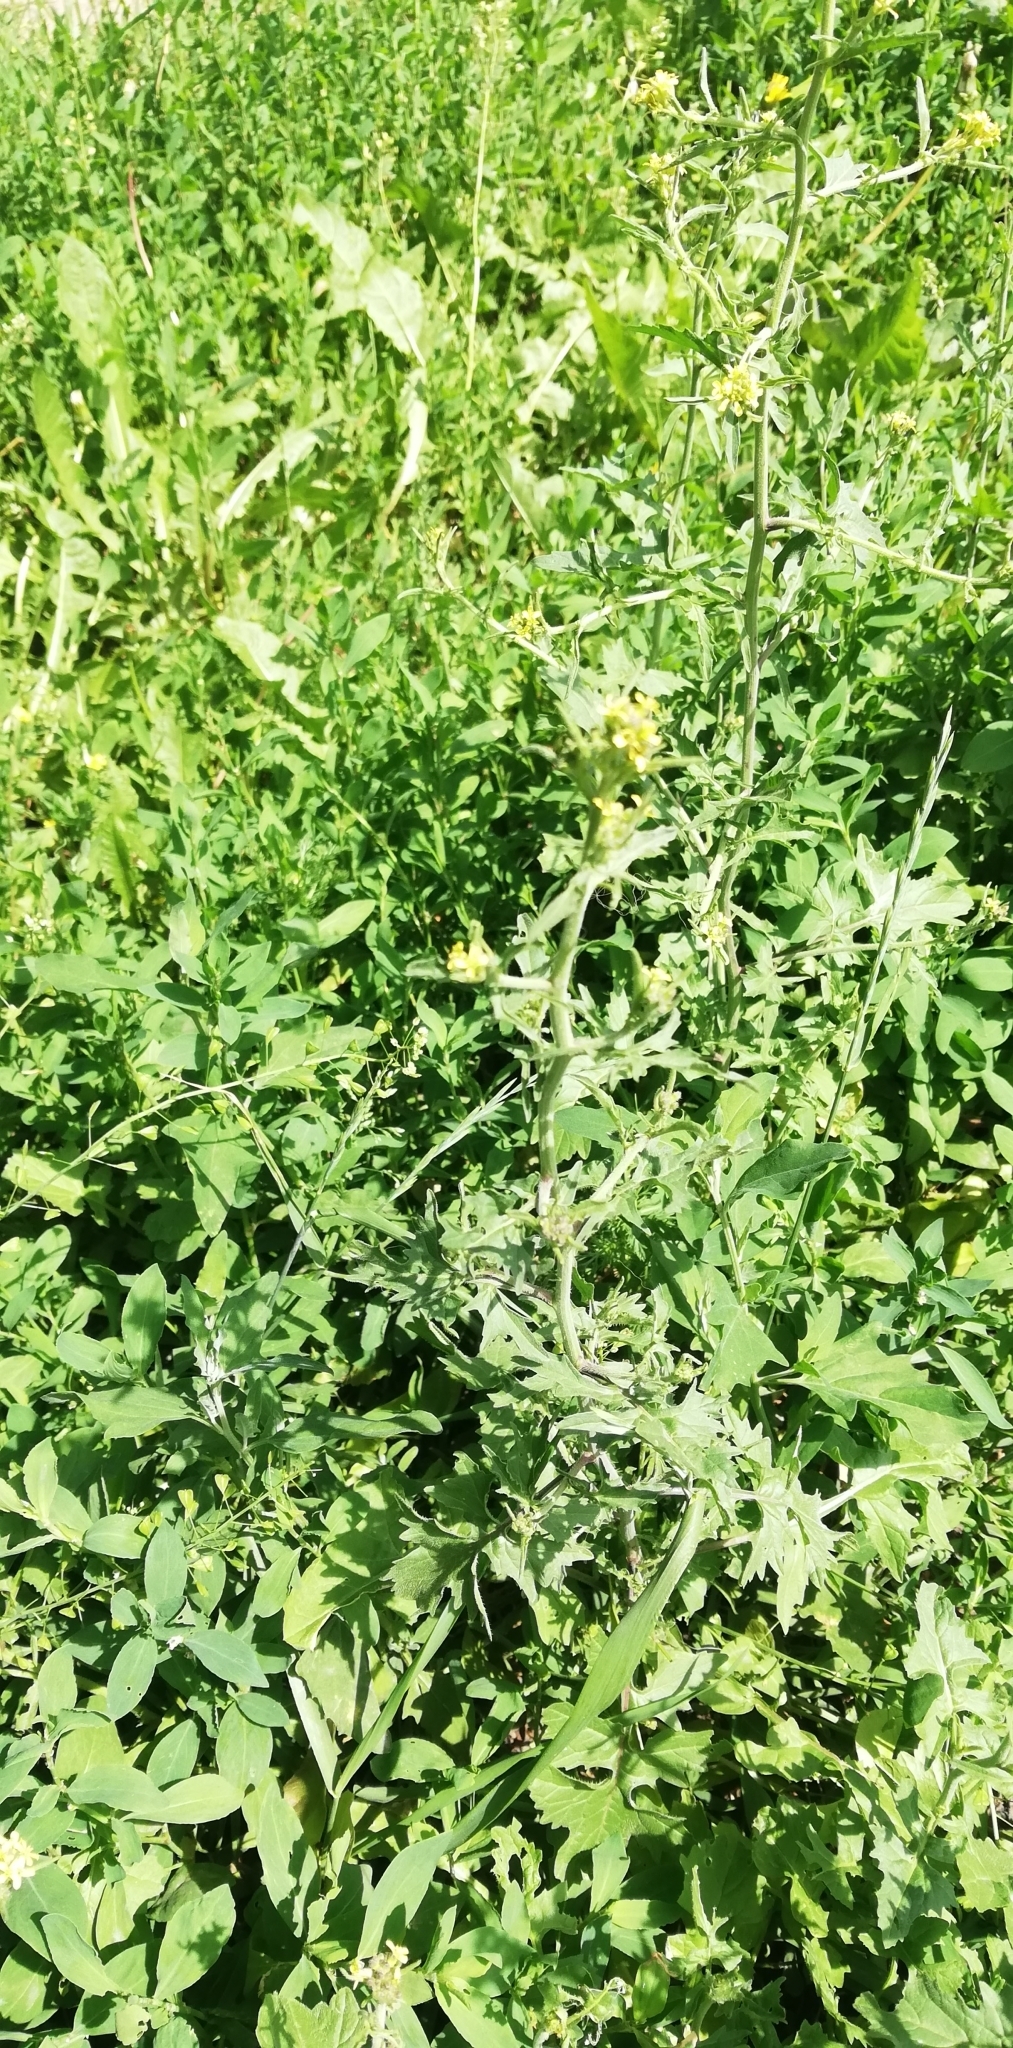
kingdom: Plantae
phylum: Tracheophyta
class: Magnoliopsida
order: Brassicales
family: Brassicaceae
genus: Sisymbrium
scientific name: Sisymbrium officinale
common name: Hedge mustard
